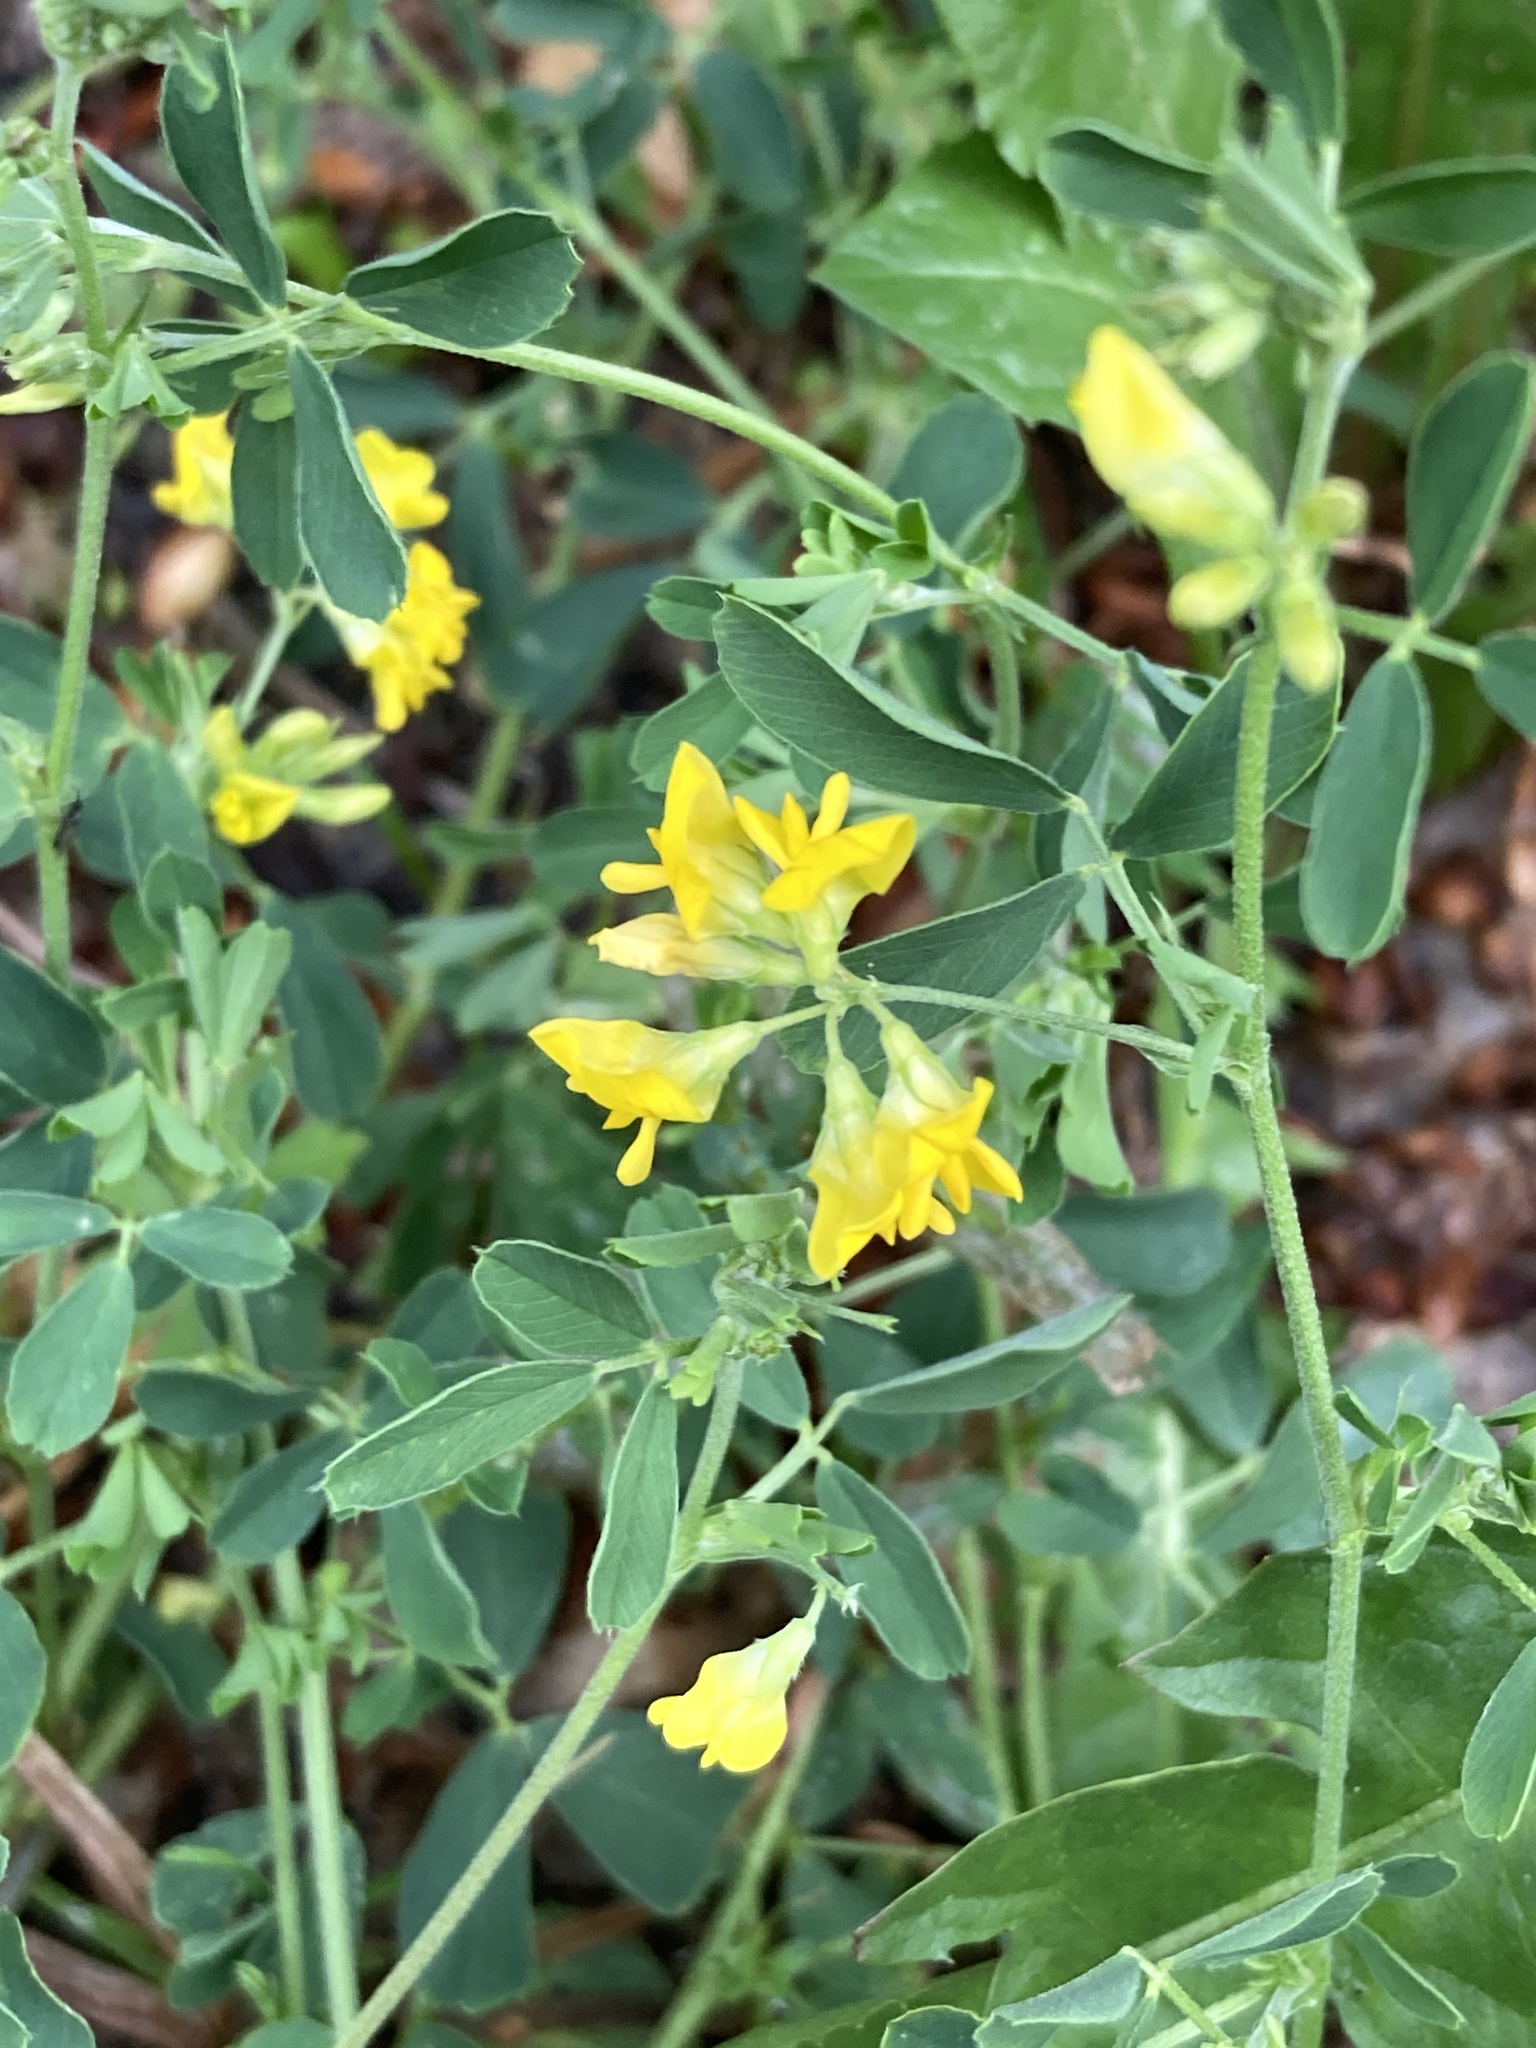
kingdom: Plantae
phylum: Tracheophyta
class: Magnoliopsida
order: Fabales
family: Fabaceae
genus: Medicago
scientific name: Medicago falcata
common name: Sickle medick
